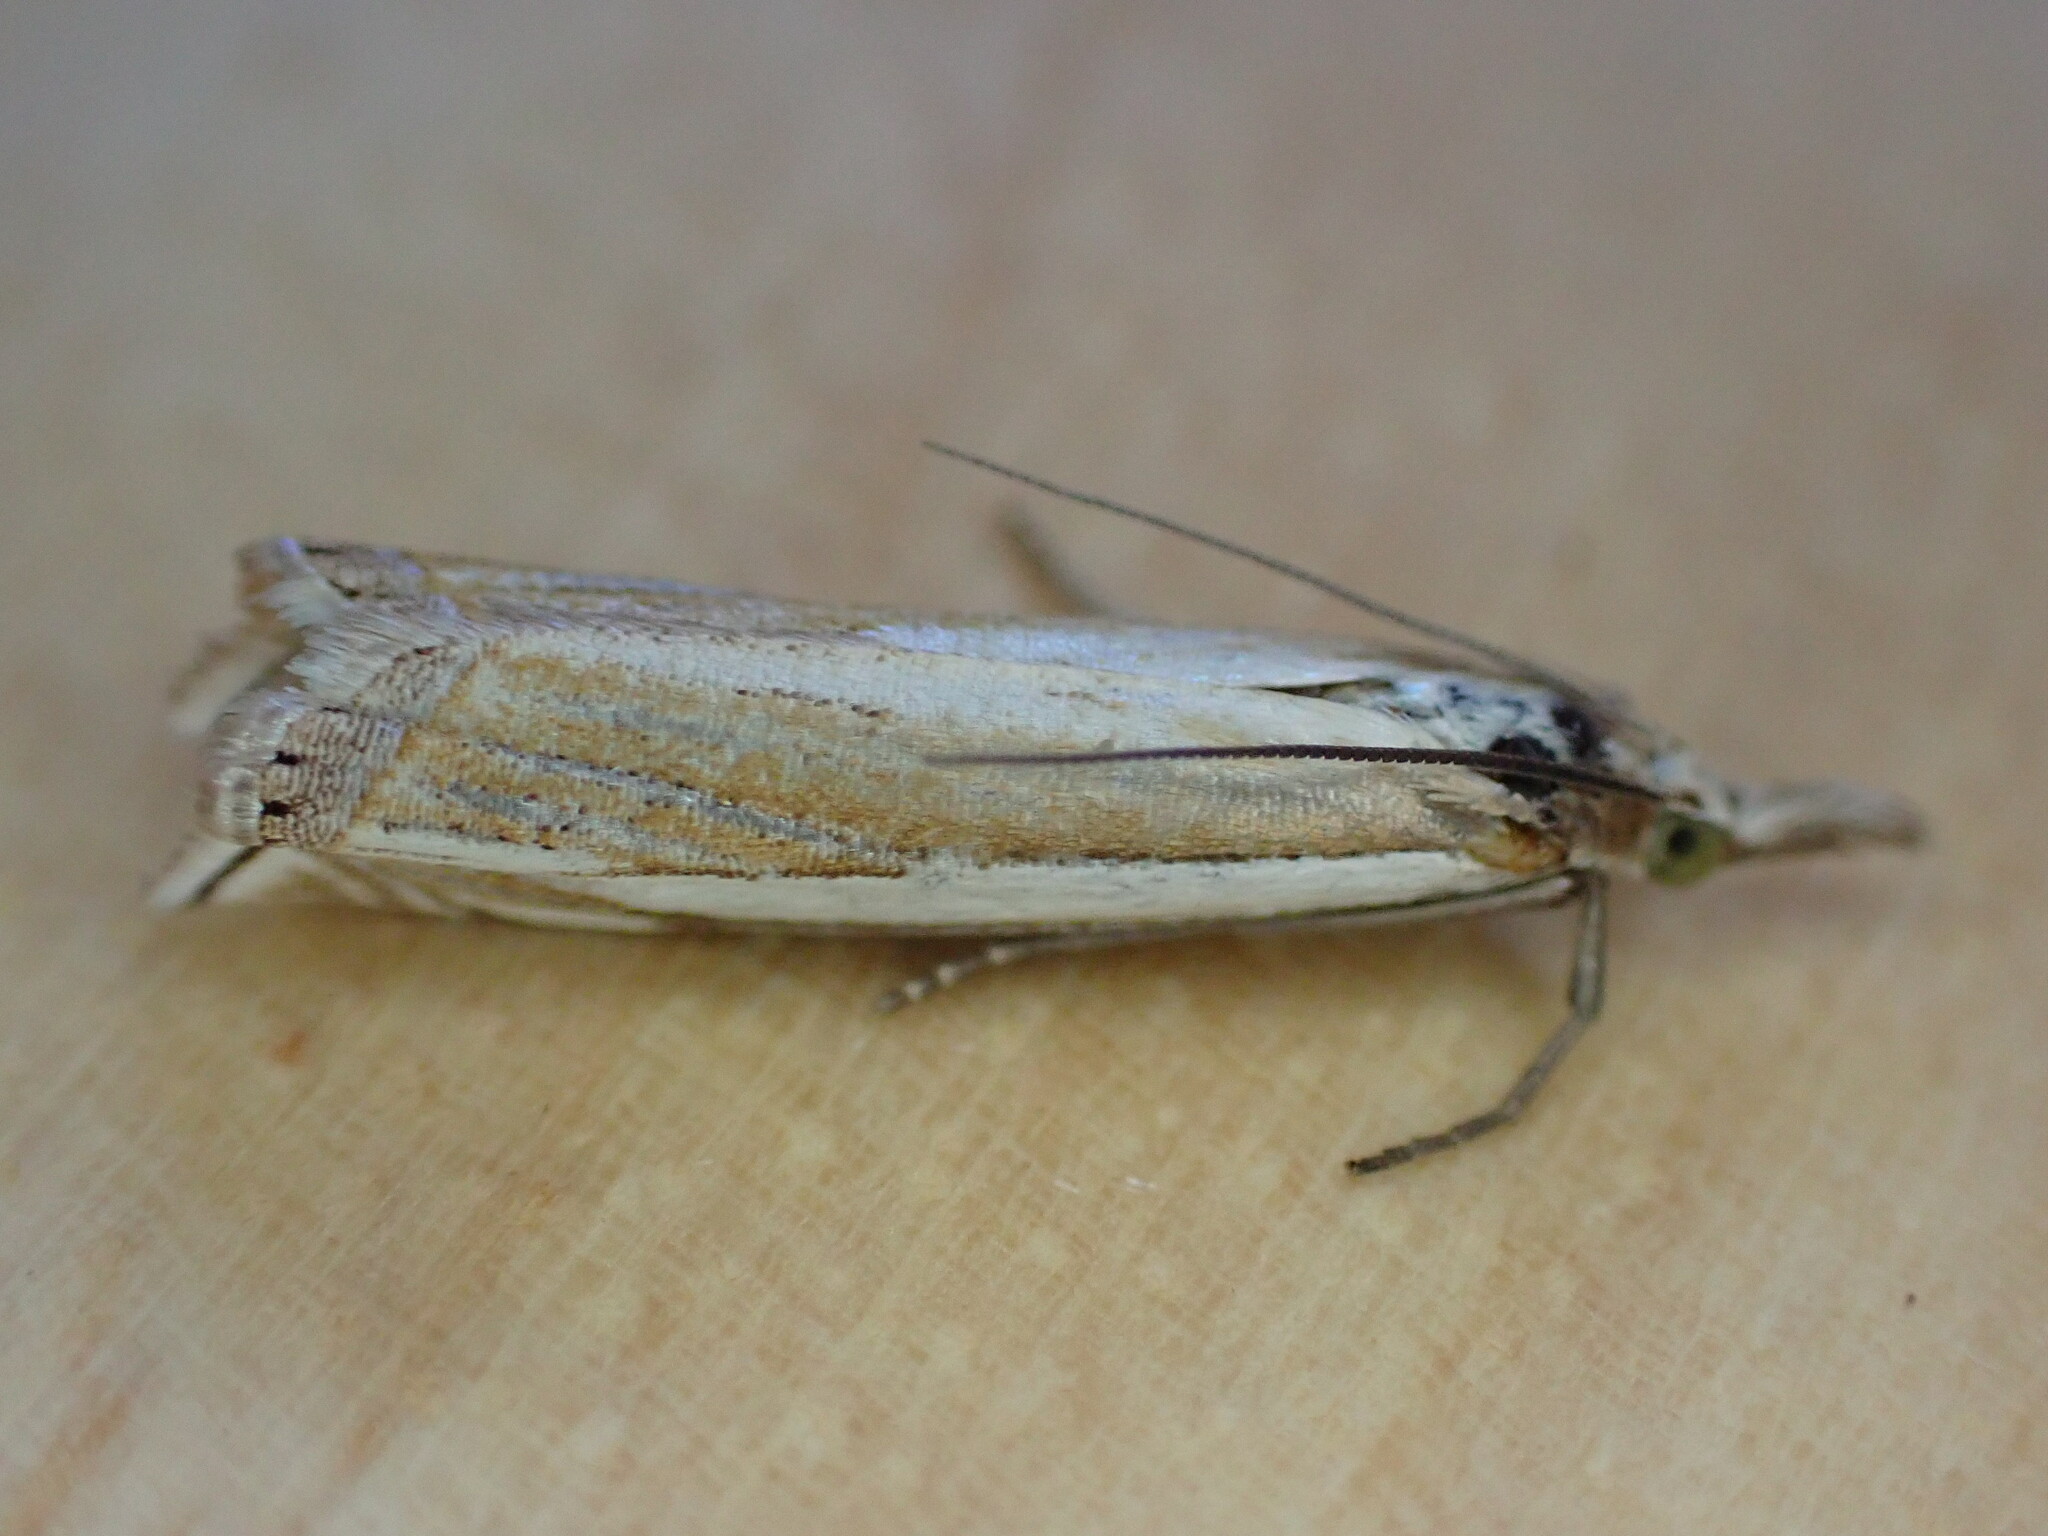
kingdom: Animalia
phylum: Arthropoda
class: Insecta
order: Lepidoptera
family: Crambidae
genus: Crambus
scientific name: Crambus pascuella
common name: Inlaid grass-veneer
